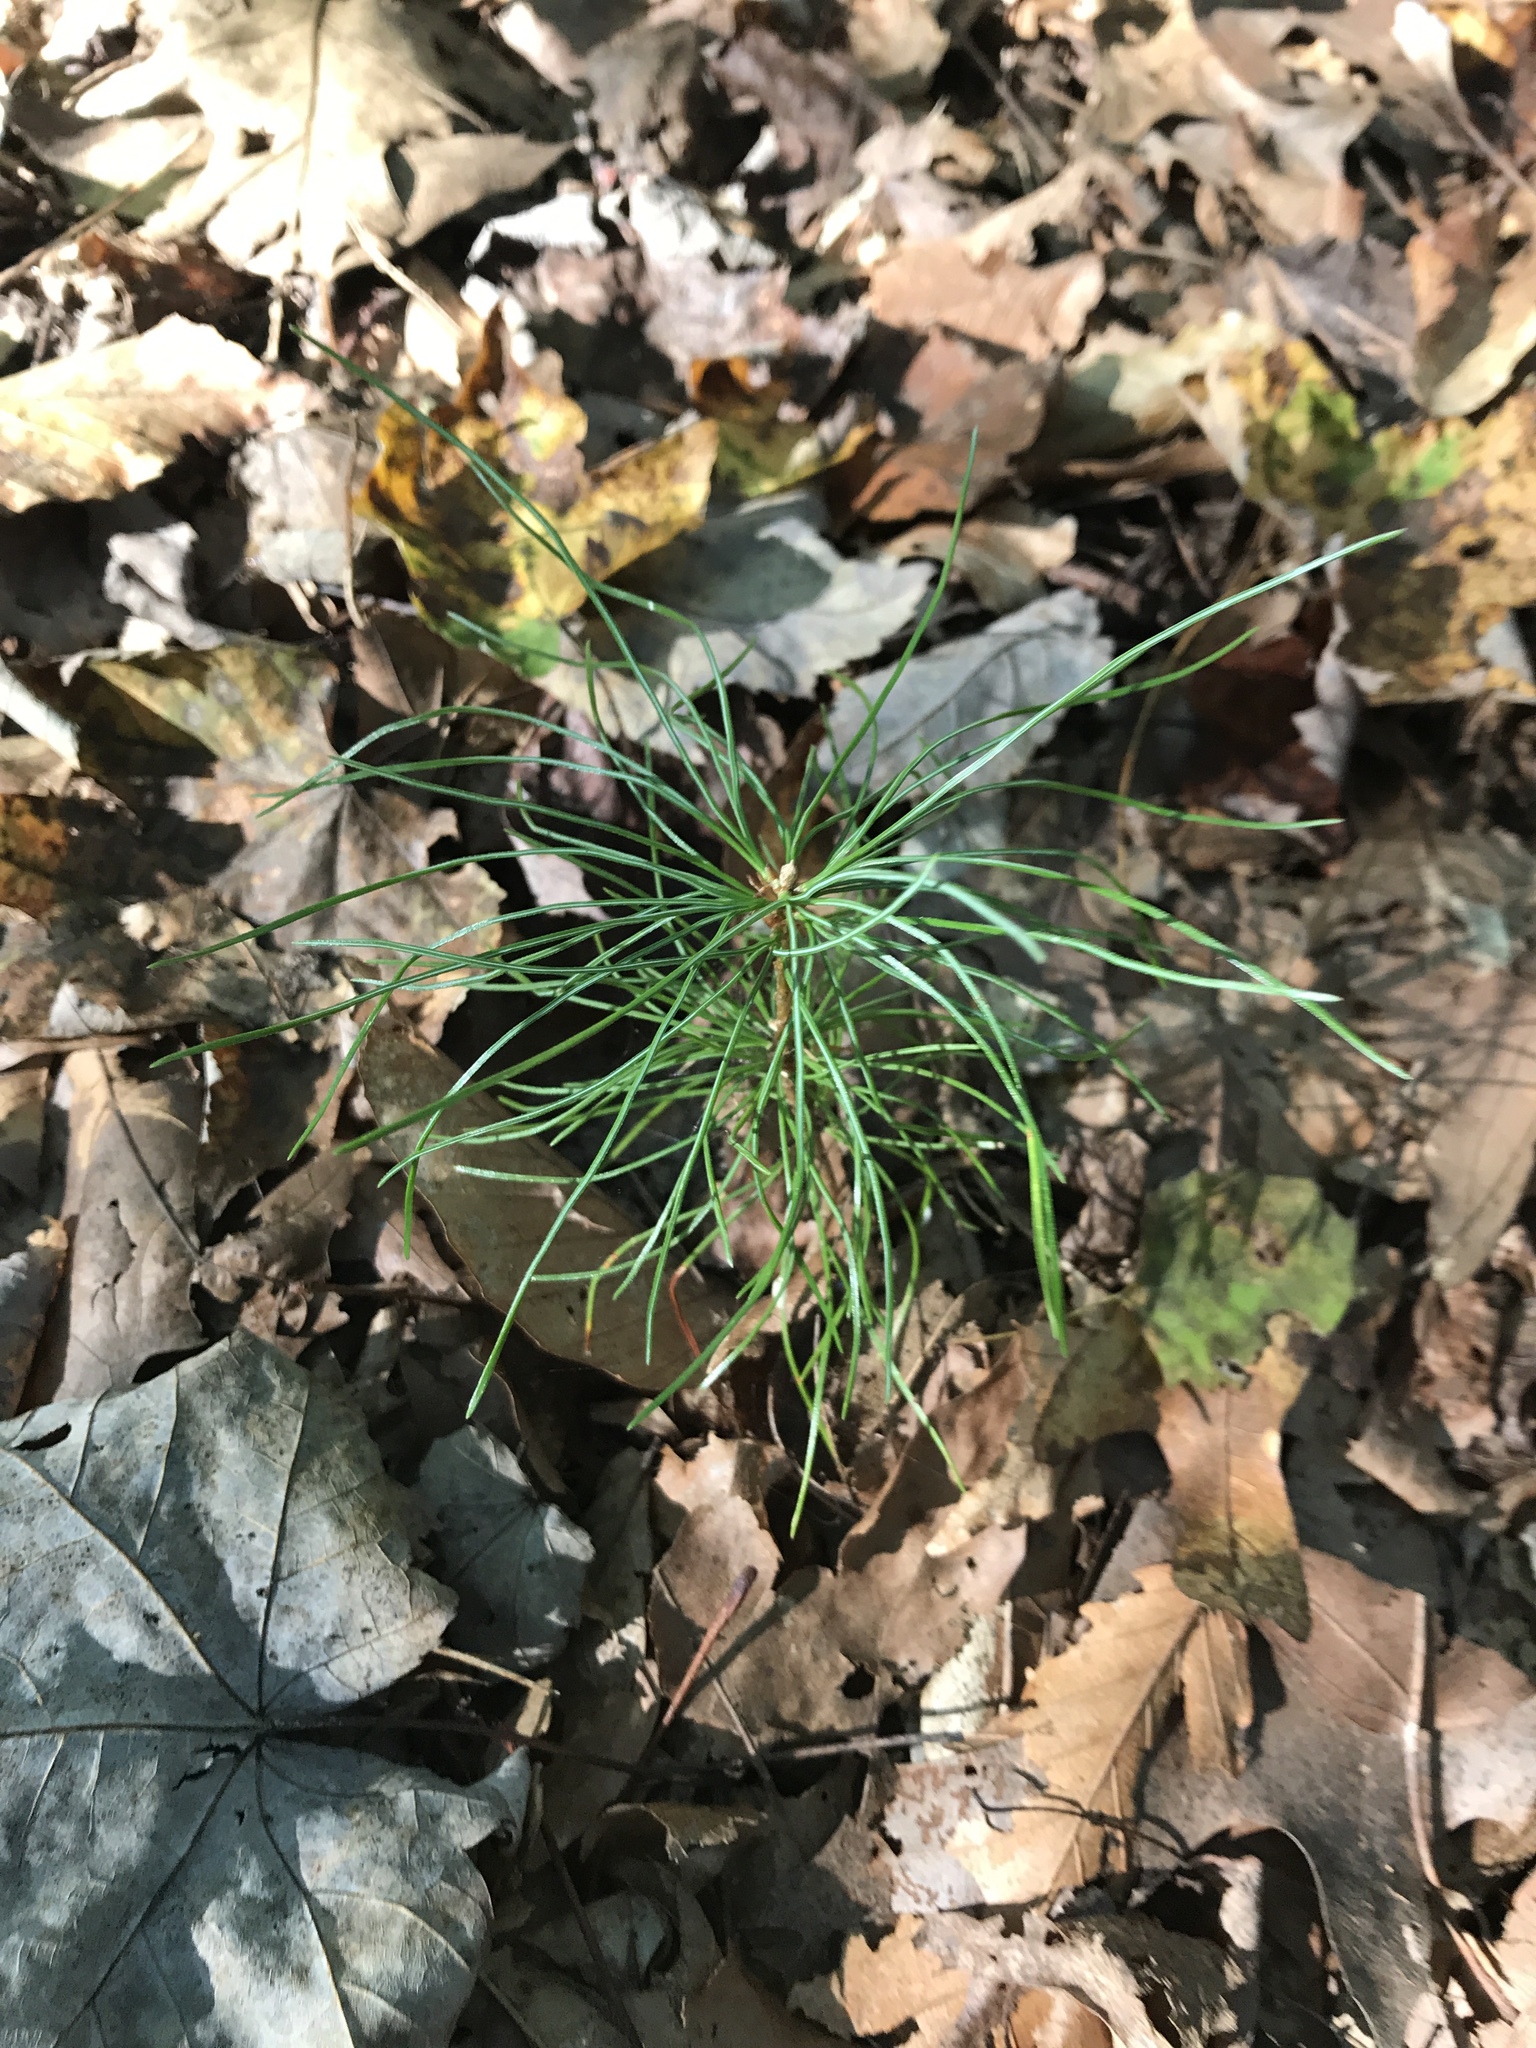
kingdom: Plantae
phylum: Tracheophyta
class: Pinopsida
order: Pinales
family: Pinaceae
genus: Pinus
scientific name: Pinus strobus
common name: Weymouth pine
